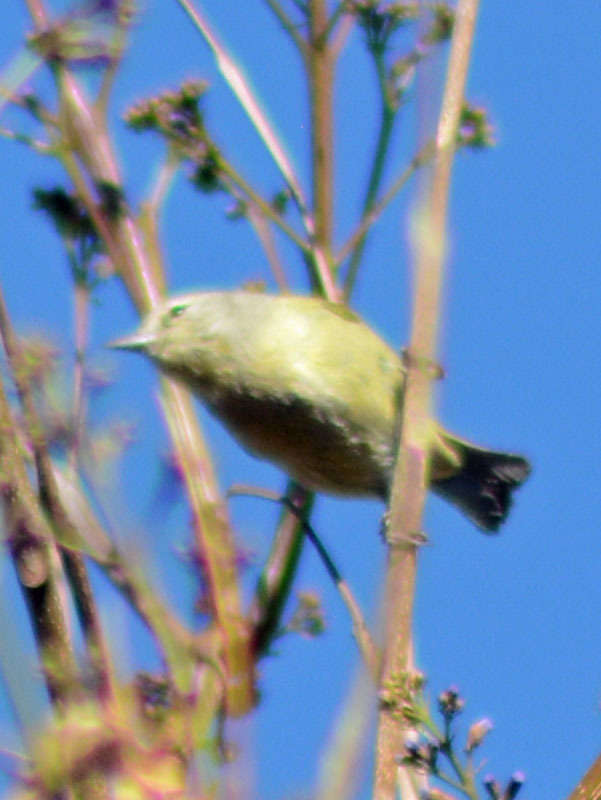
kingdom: Animalia
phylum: Chordata
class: Aves
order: Passeriformes
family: Parulidae
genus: Leiothlypis
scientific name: Leiothlypis celata
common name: Orange-crowned warbler
